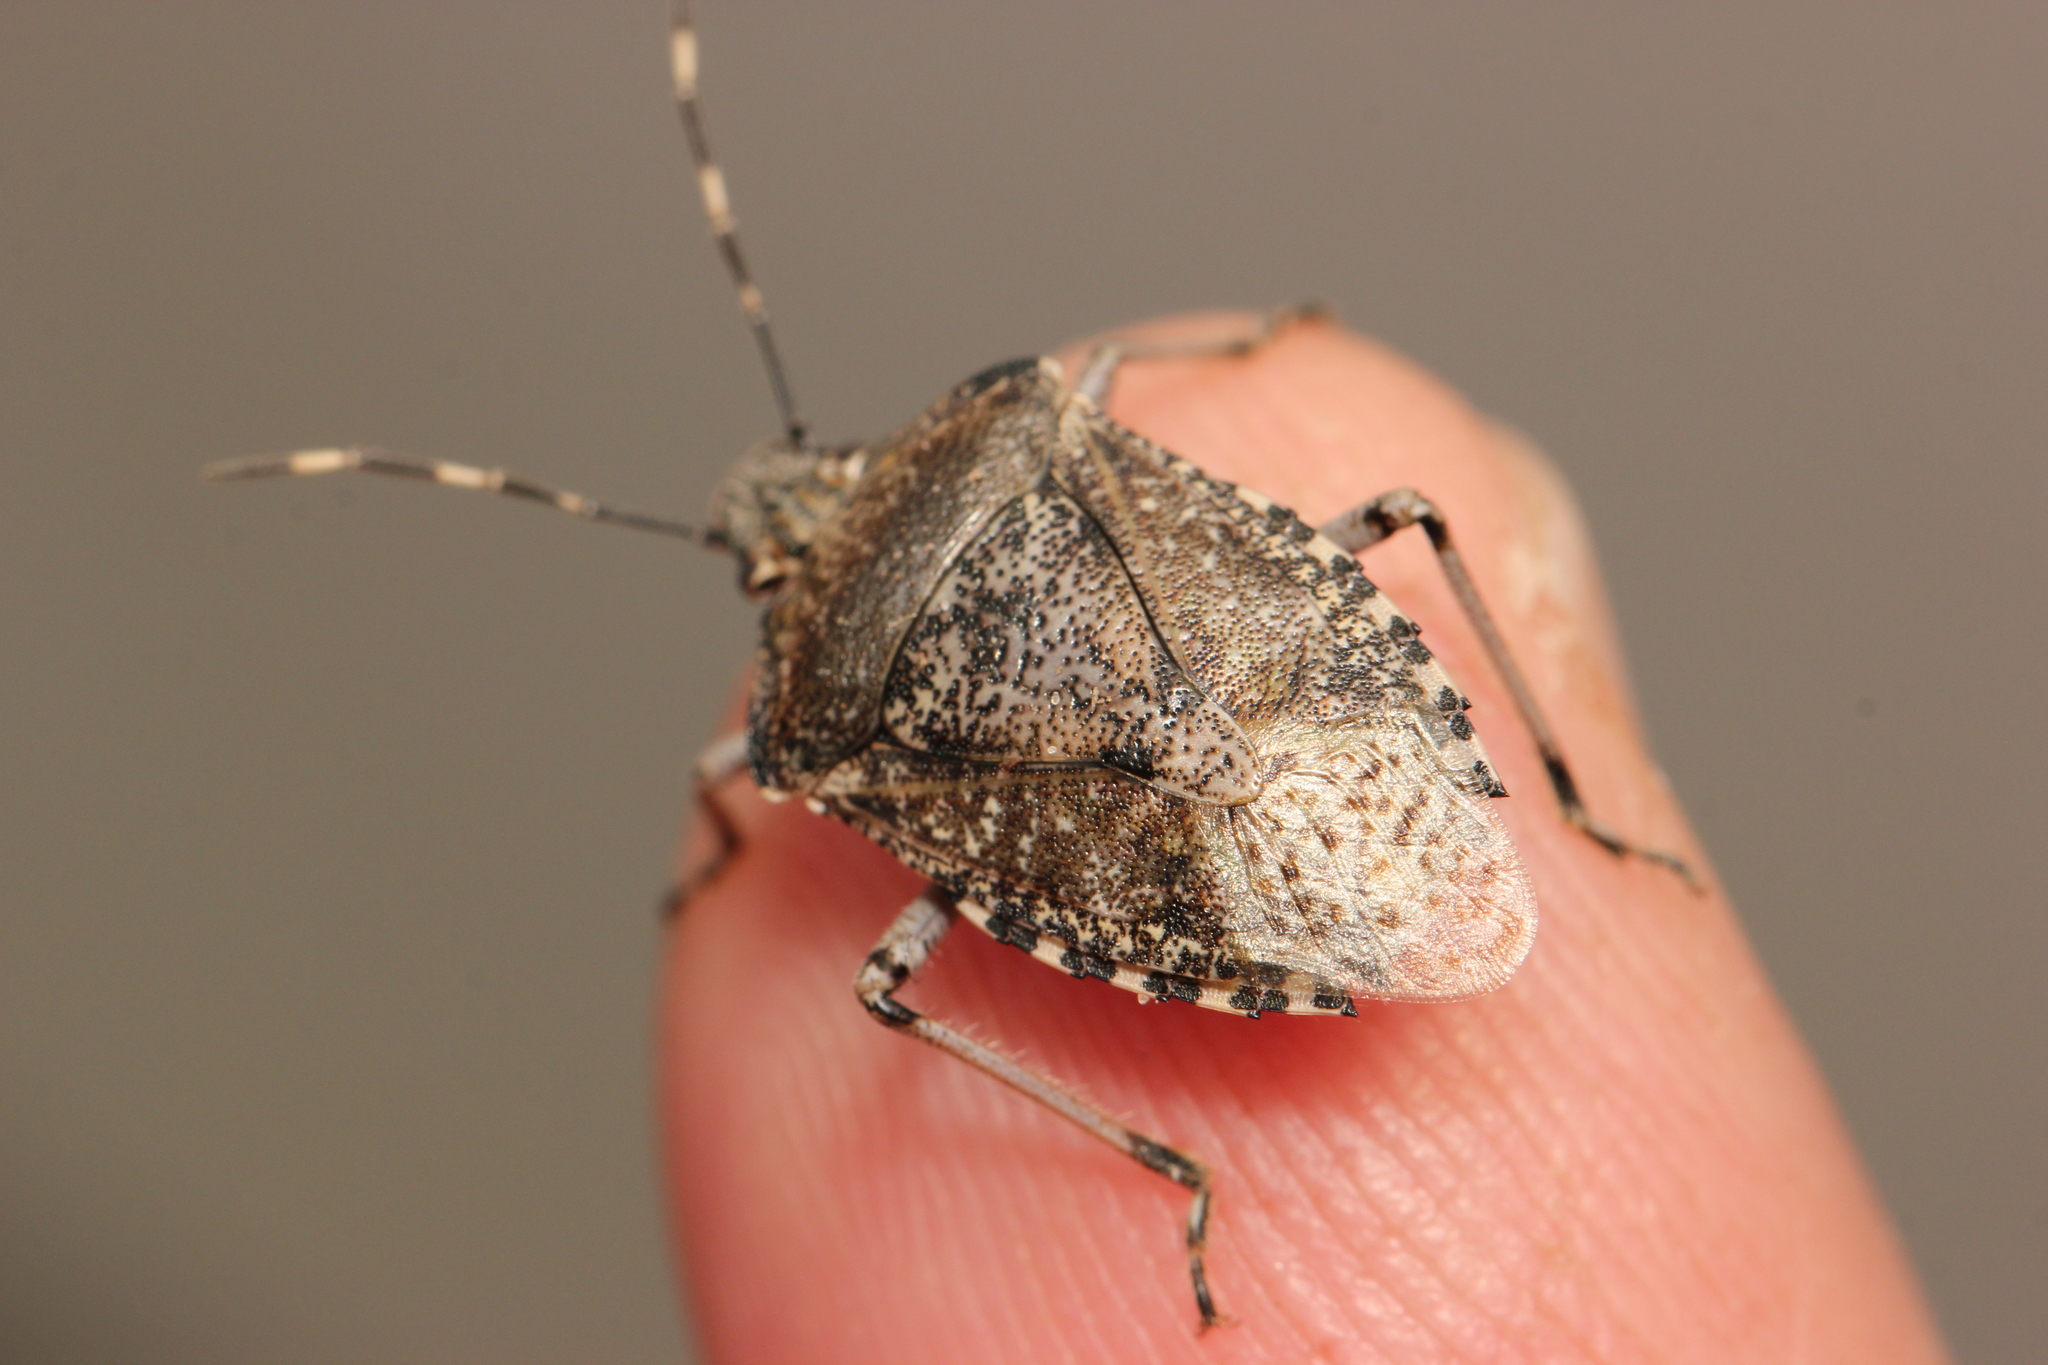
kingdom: Animalia
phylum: Arthropoda
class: Insecta
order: Hemiptera
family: Pentatomidae
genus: Rhaphigaster
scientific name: Rhaphigaster nebulosa
